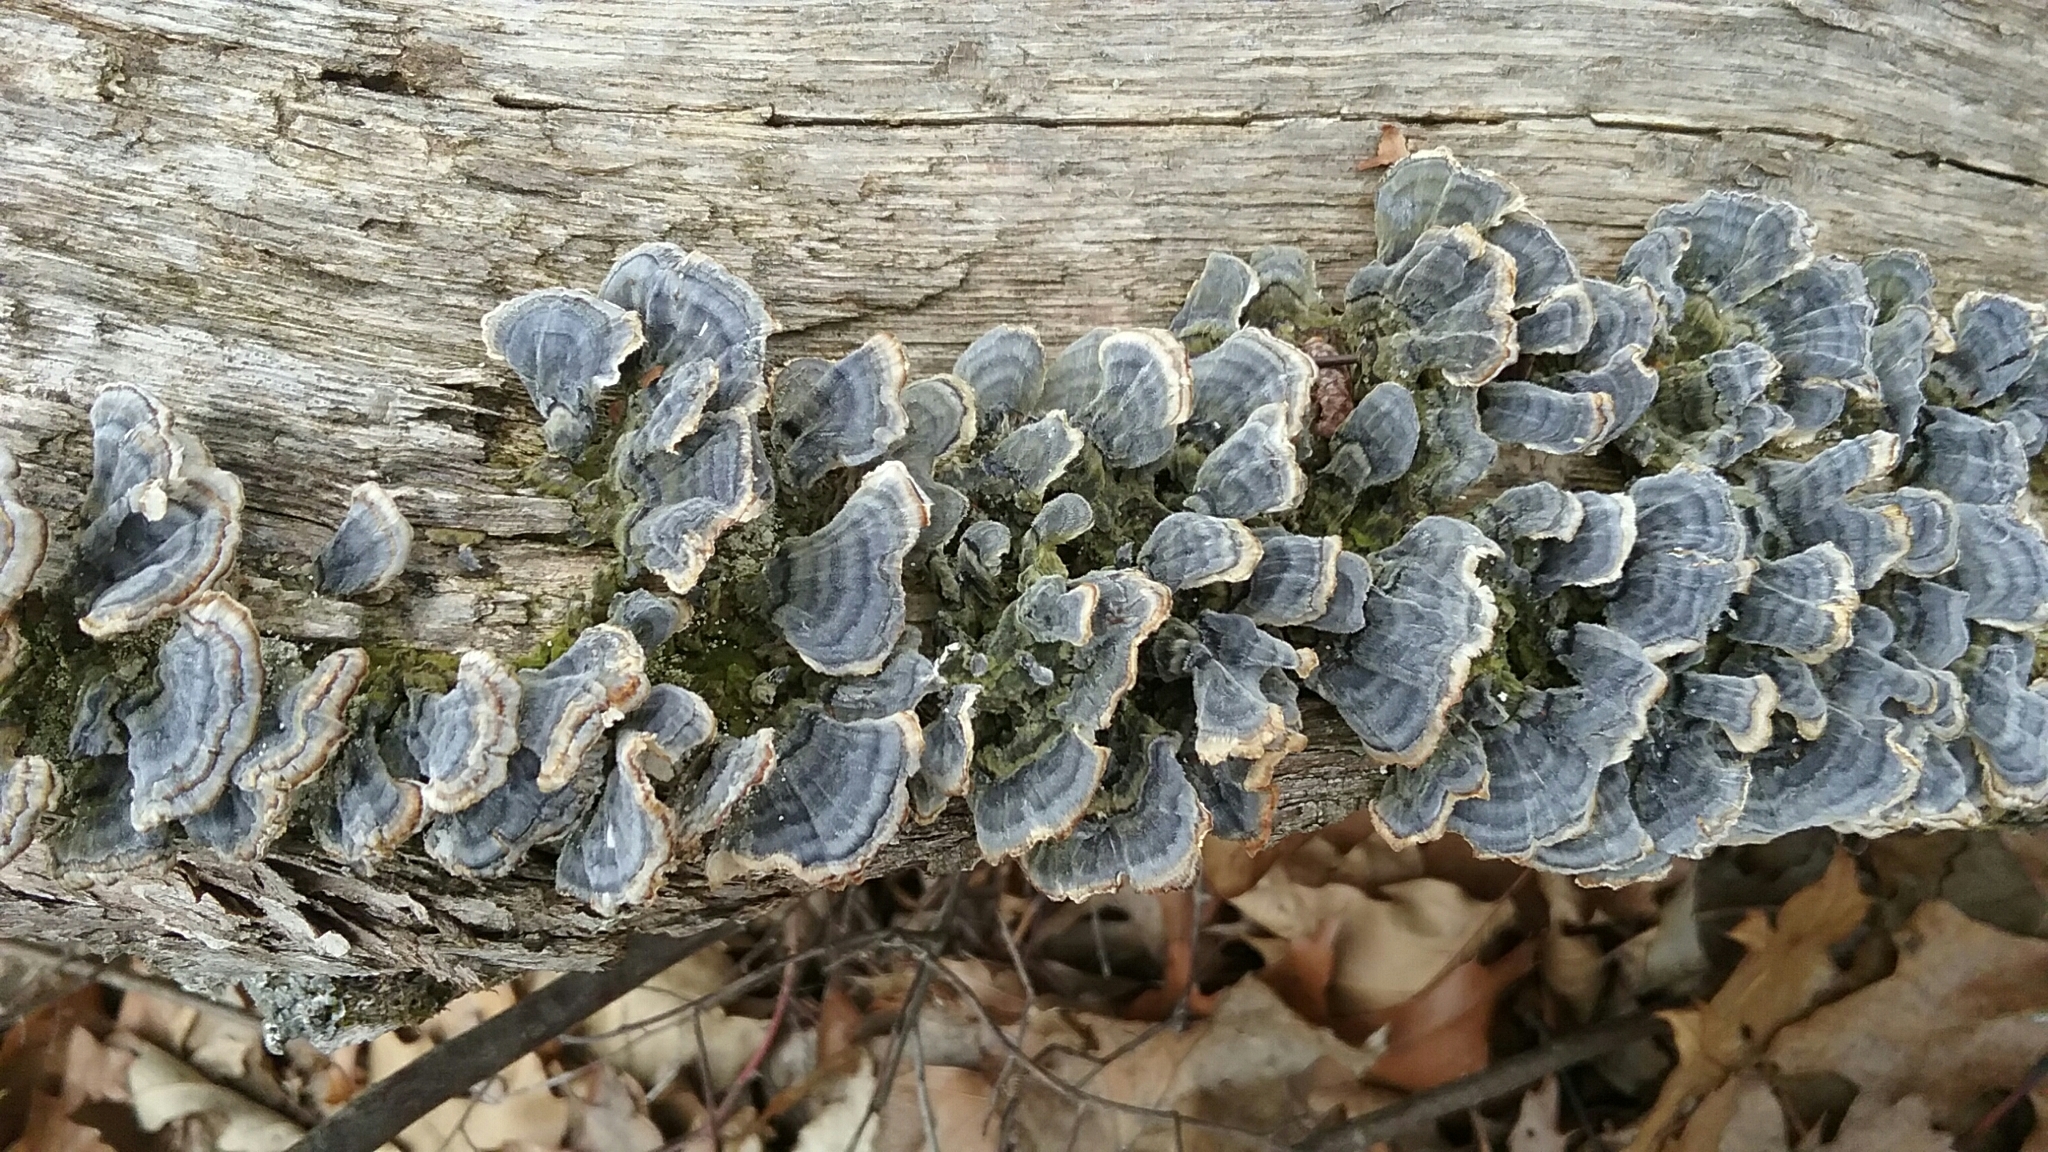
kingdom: Fungi
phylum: Basidiomycota
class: Agaricomycetes
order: Polyporales
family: Polyporaceae
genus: Trametes
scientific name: Trametes versicolor
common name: Turkeytail
